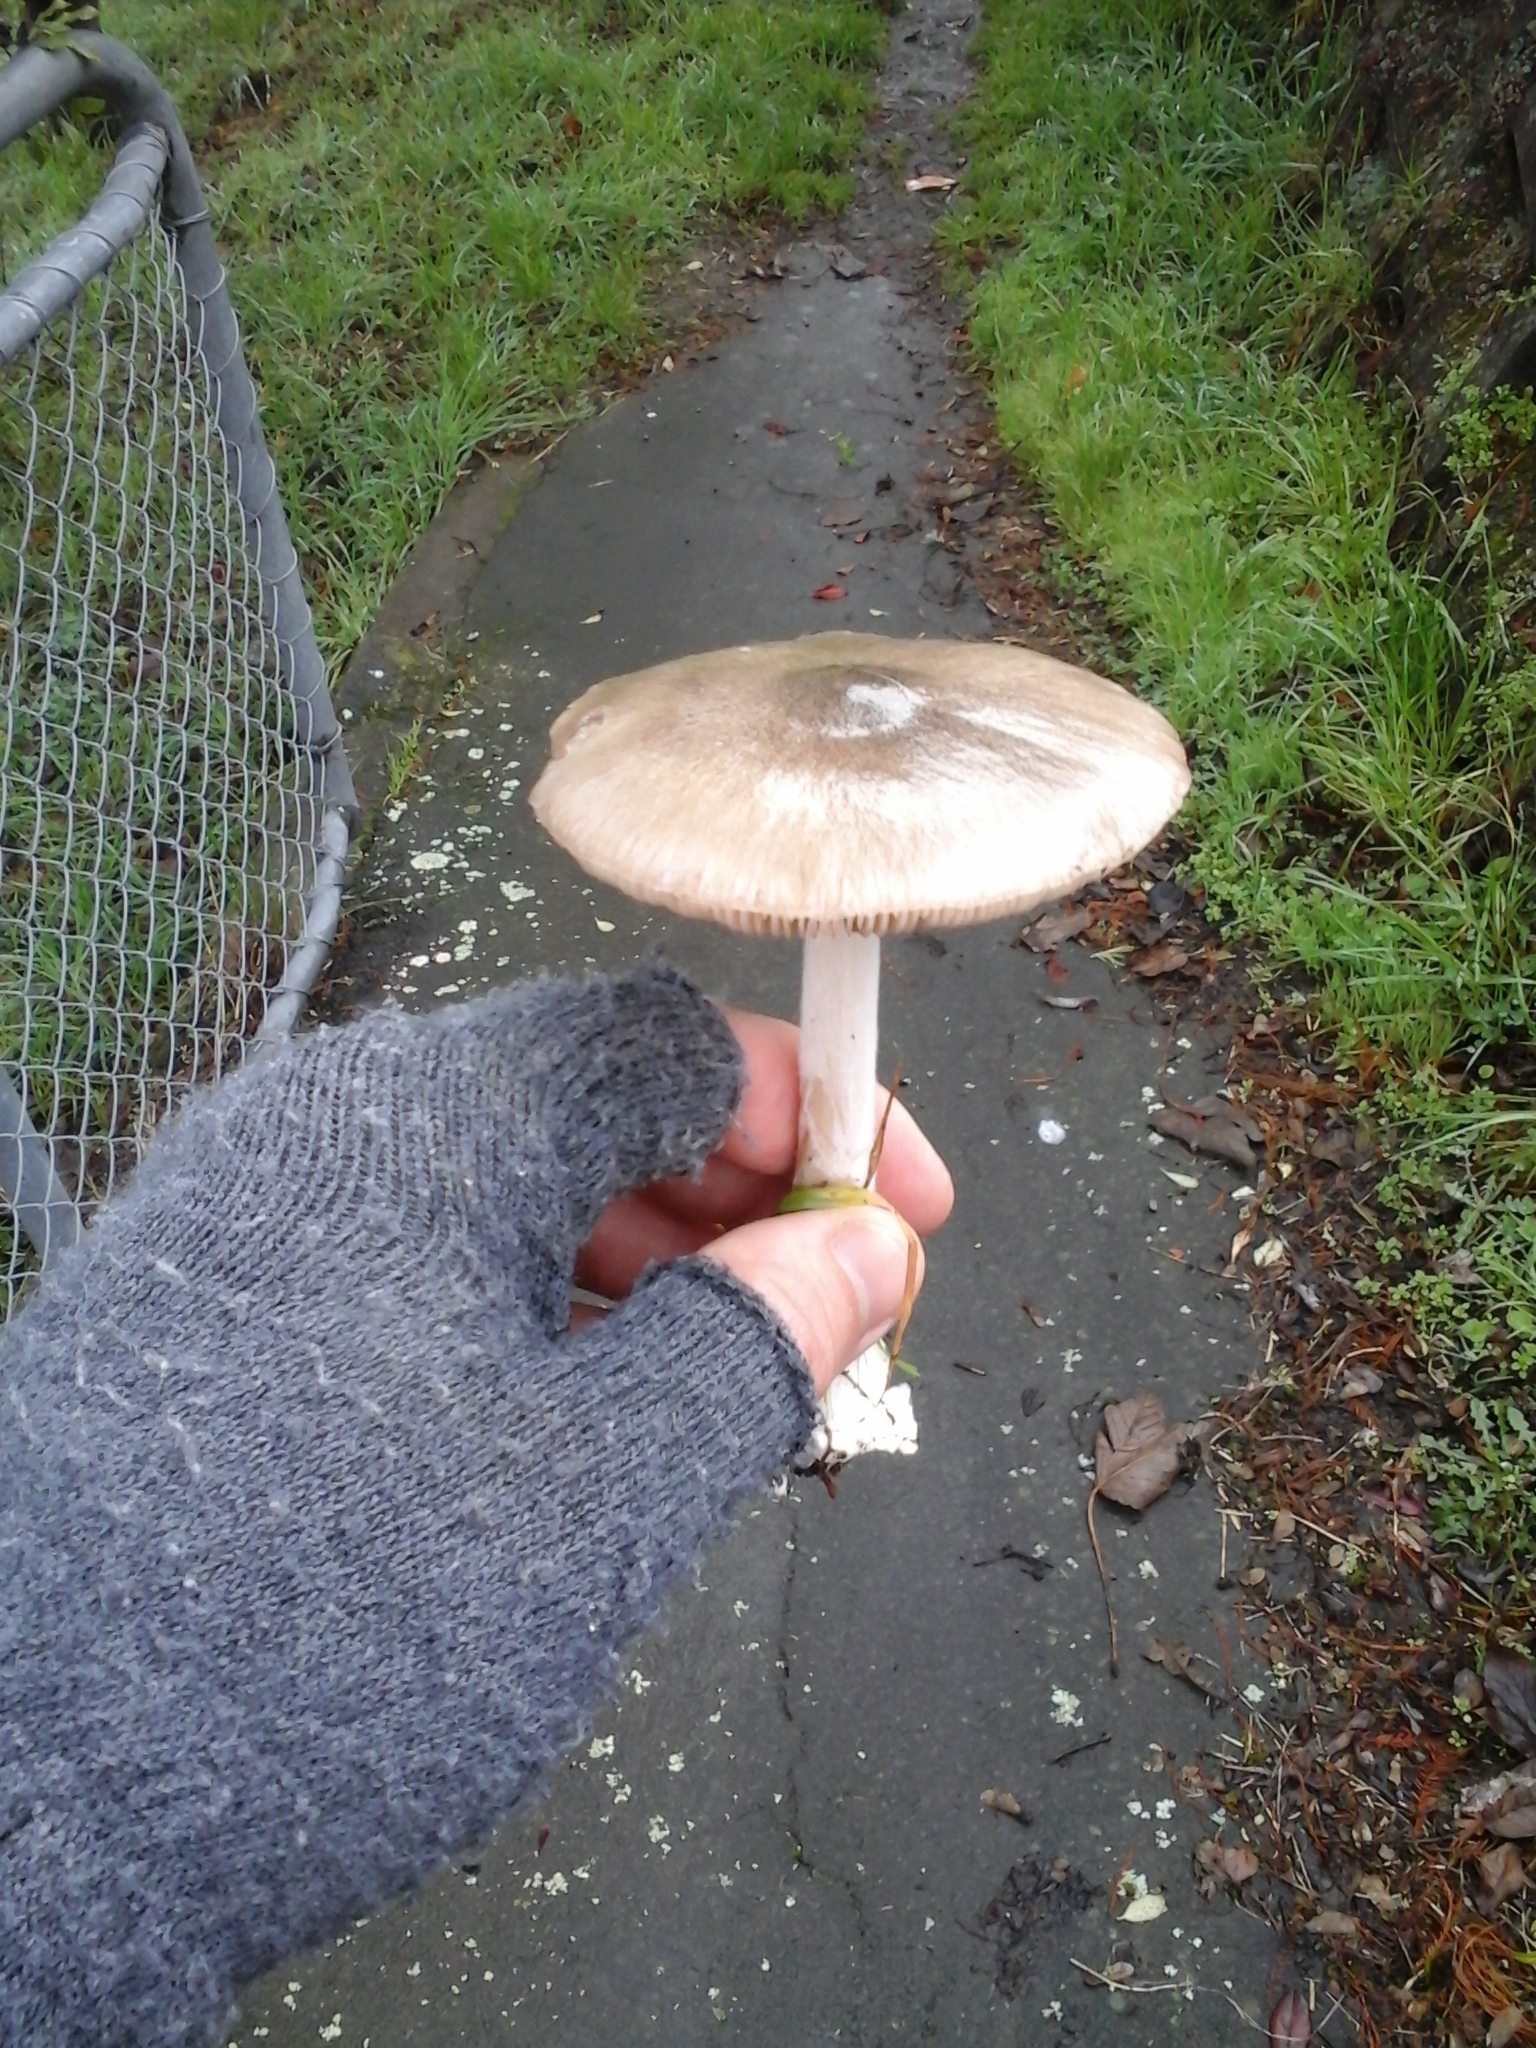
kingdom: Fungi
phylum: Basidiomycota
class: Agaricomycetes
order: Agaricales
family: Pluteaceae
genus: Volvopluteus
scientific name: Volvopluteus gloiocephalus
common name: Stubble rosegill
